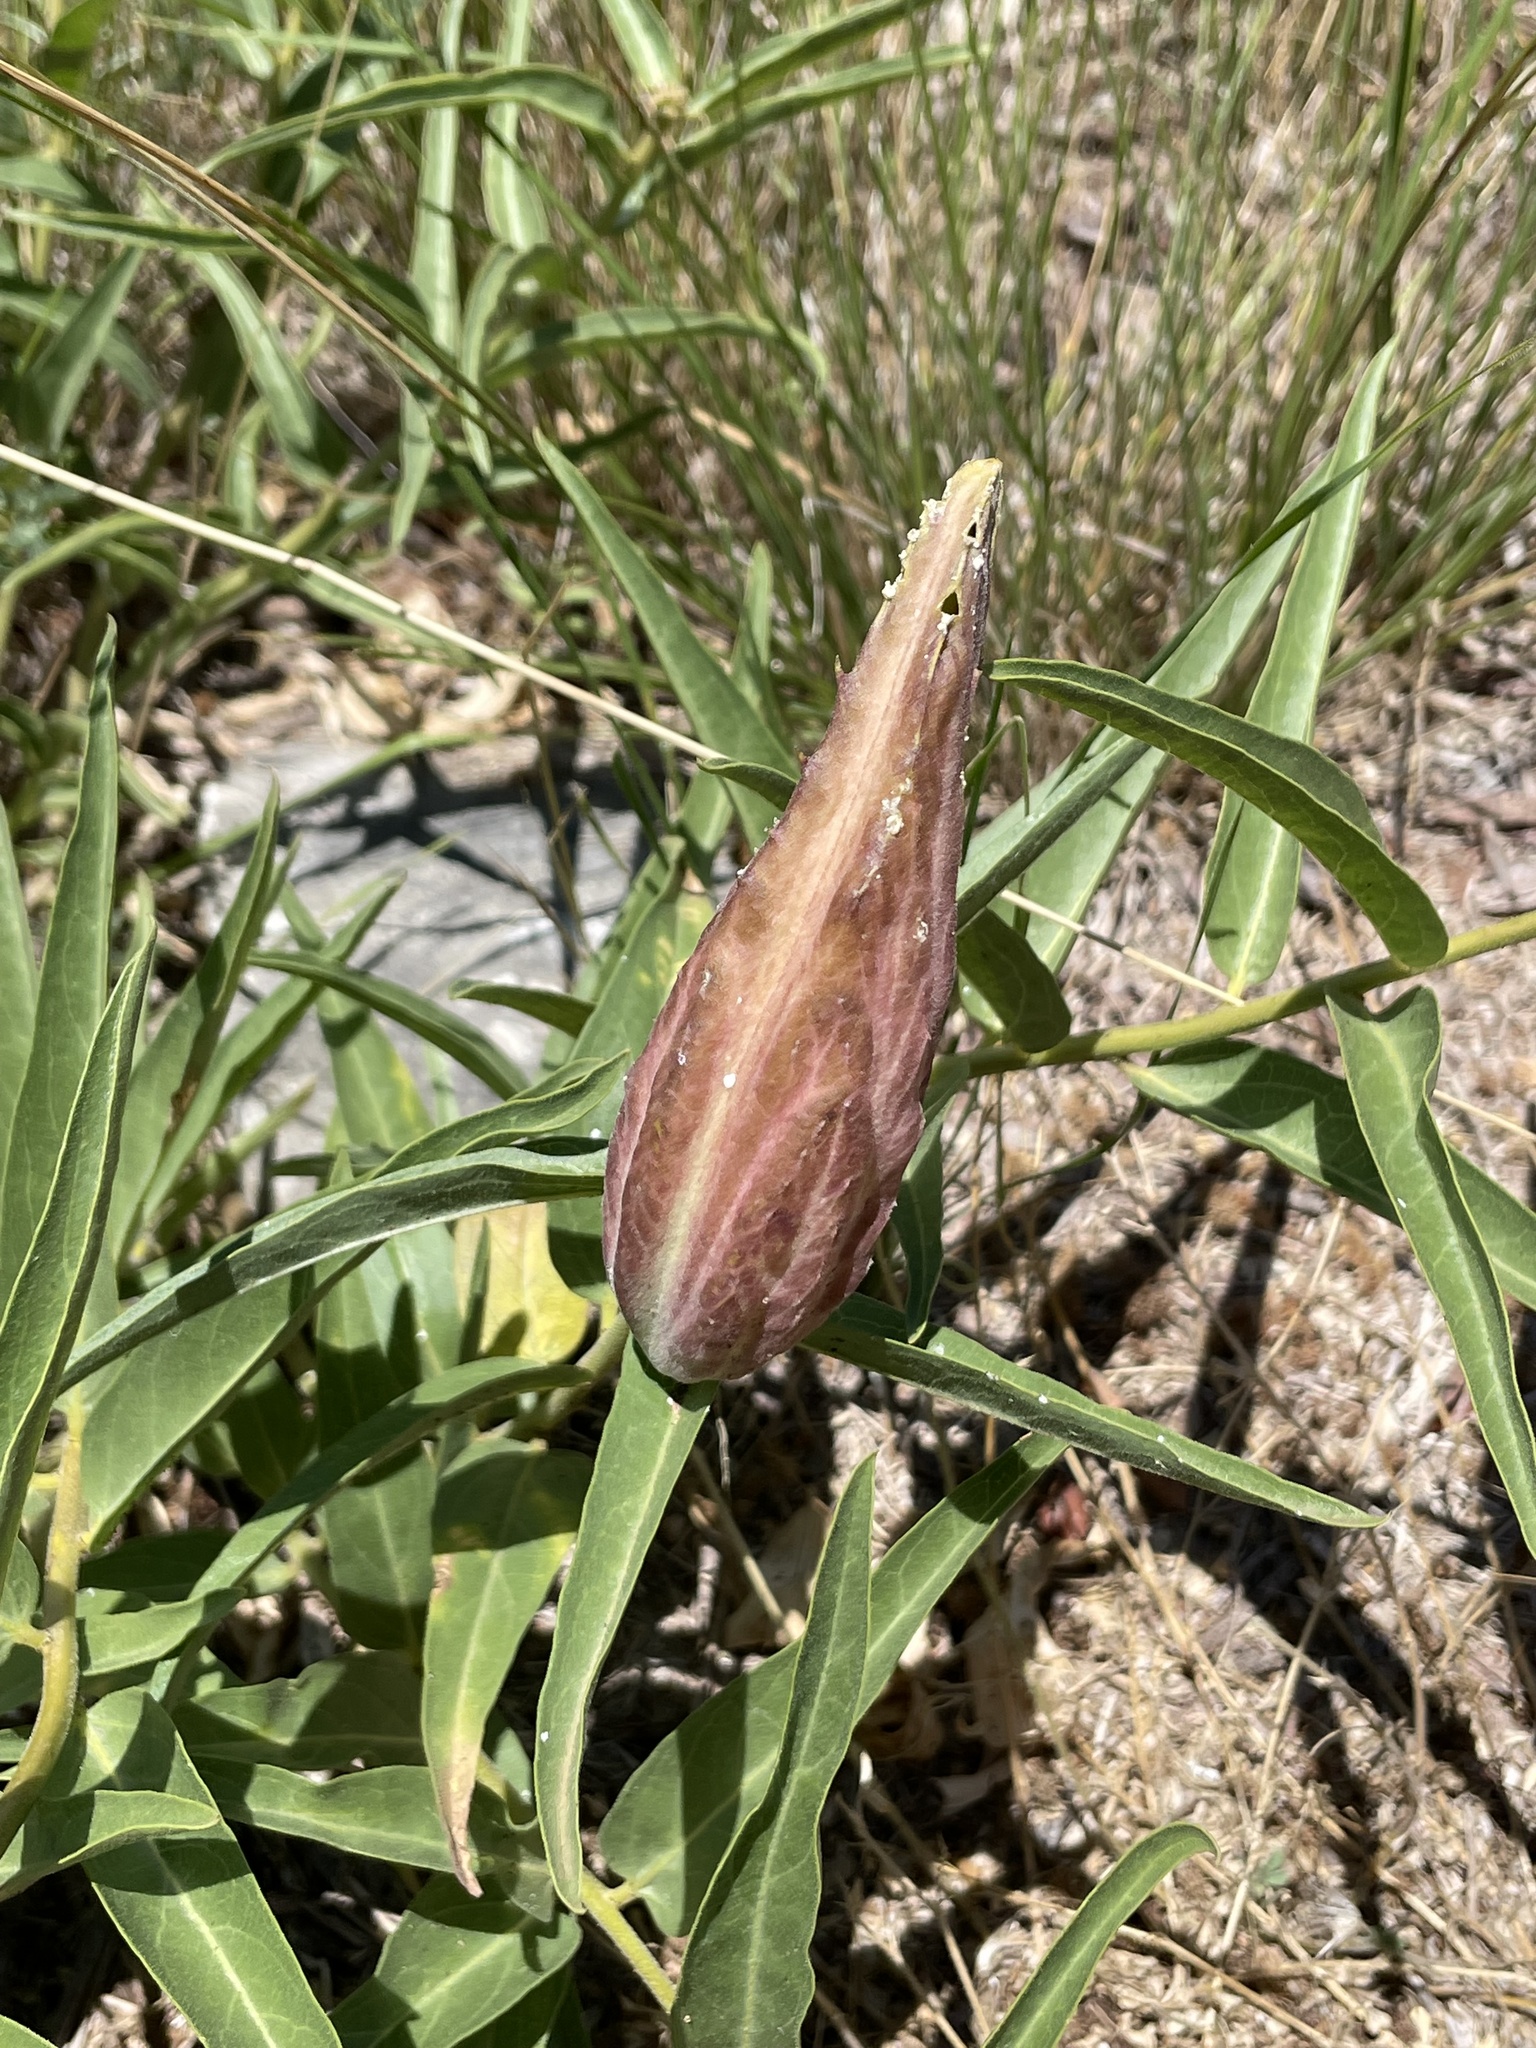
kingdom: Plantae
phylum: Tracheophyta
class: Magnoliopsida
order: Gentianales
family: Apocynaceae
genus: Asclepias
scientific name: Asclepias asperula
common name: Antelope horns
